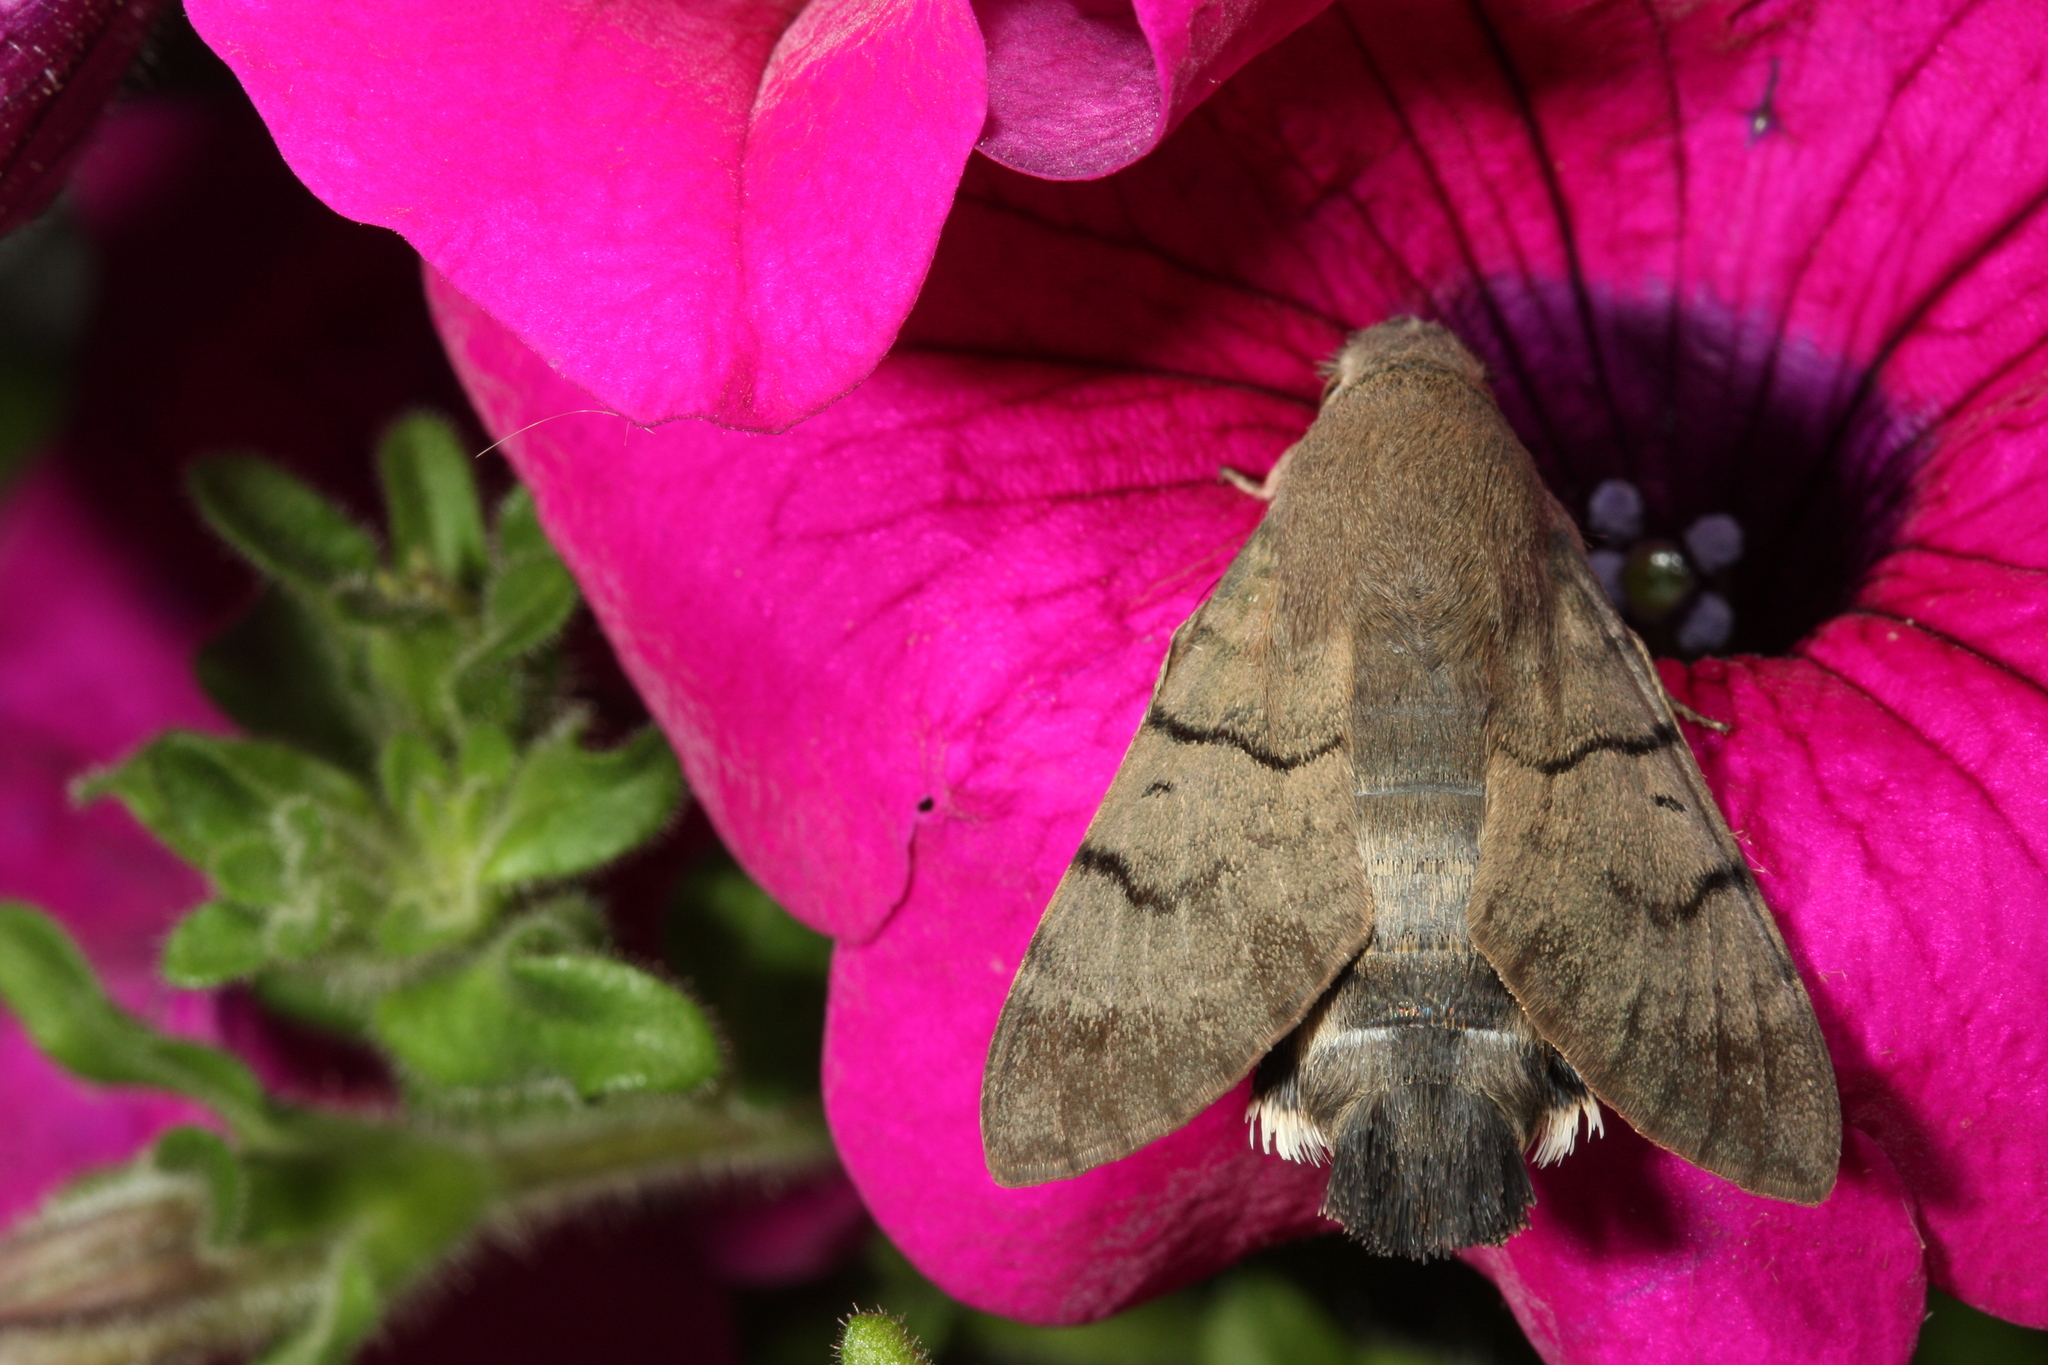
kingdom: Animalia
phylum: Arthropoda
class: Insecta
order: Lepidoptera
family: Sphingidae
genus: Macroglossum
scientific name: Macroglossum stellatarum
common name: Humming-bird hawk-moth
